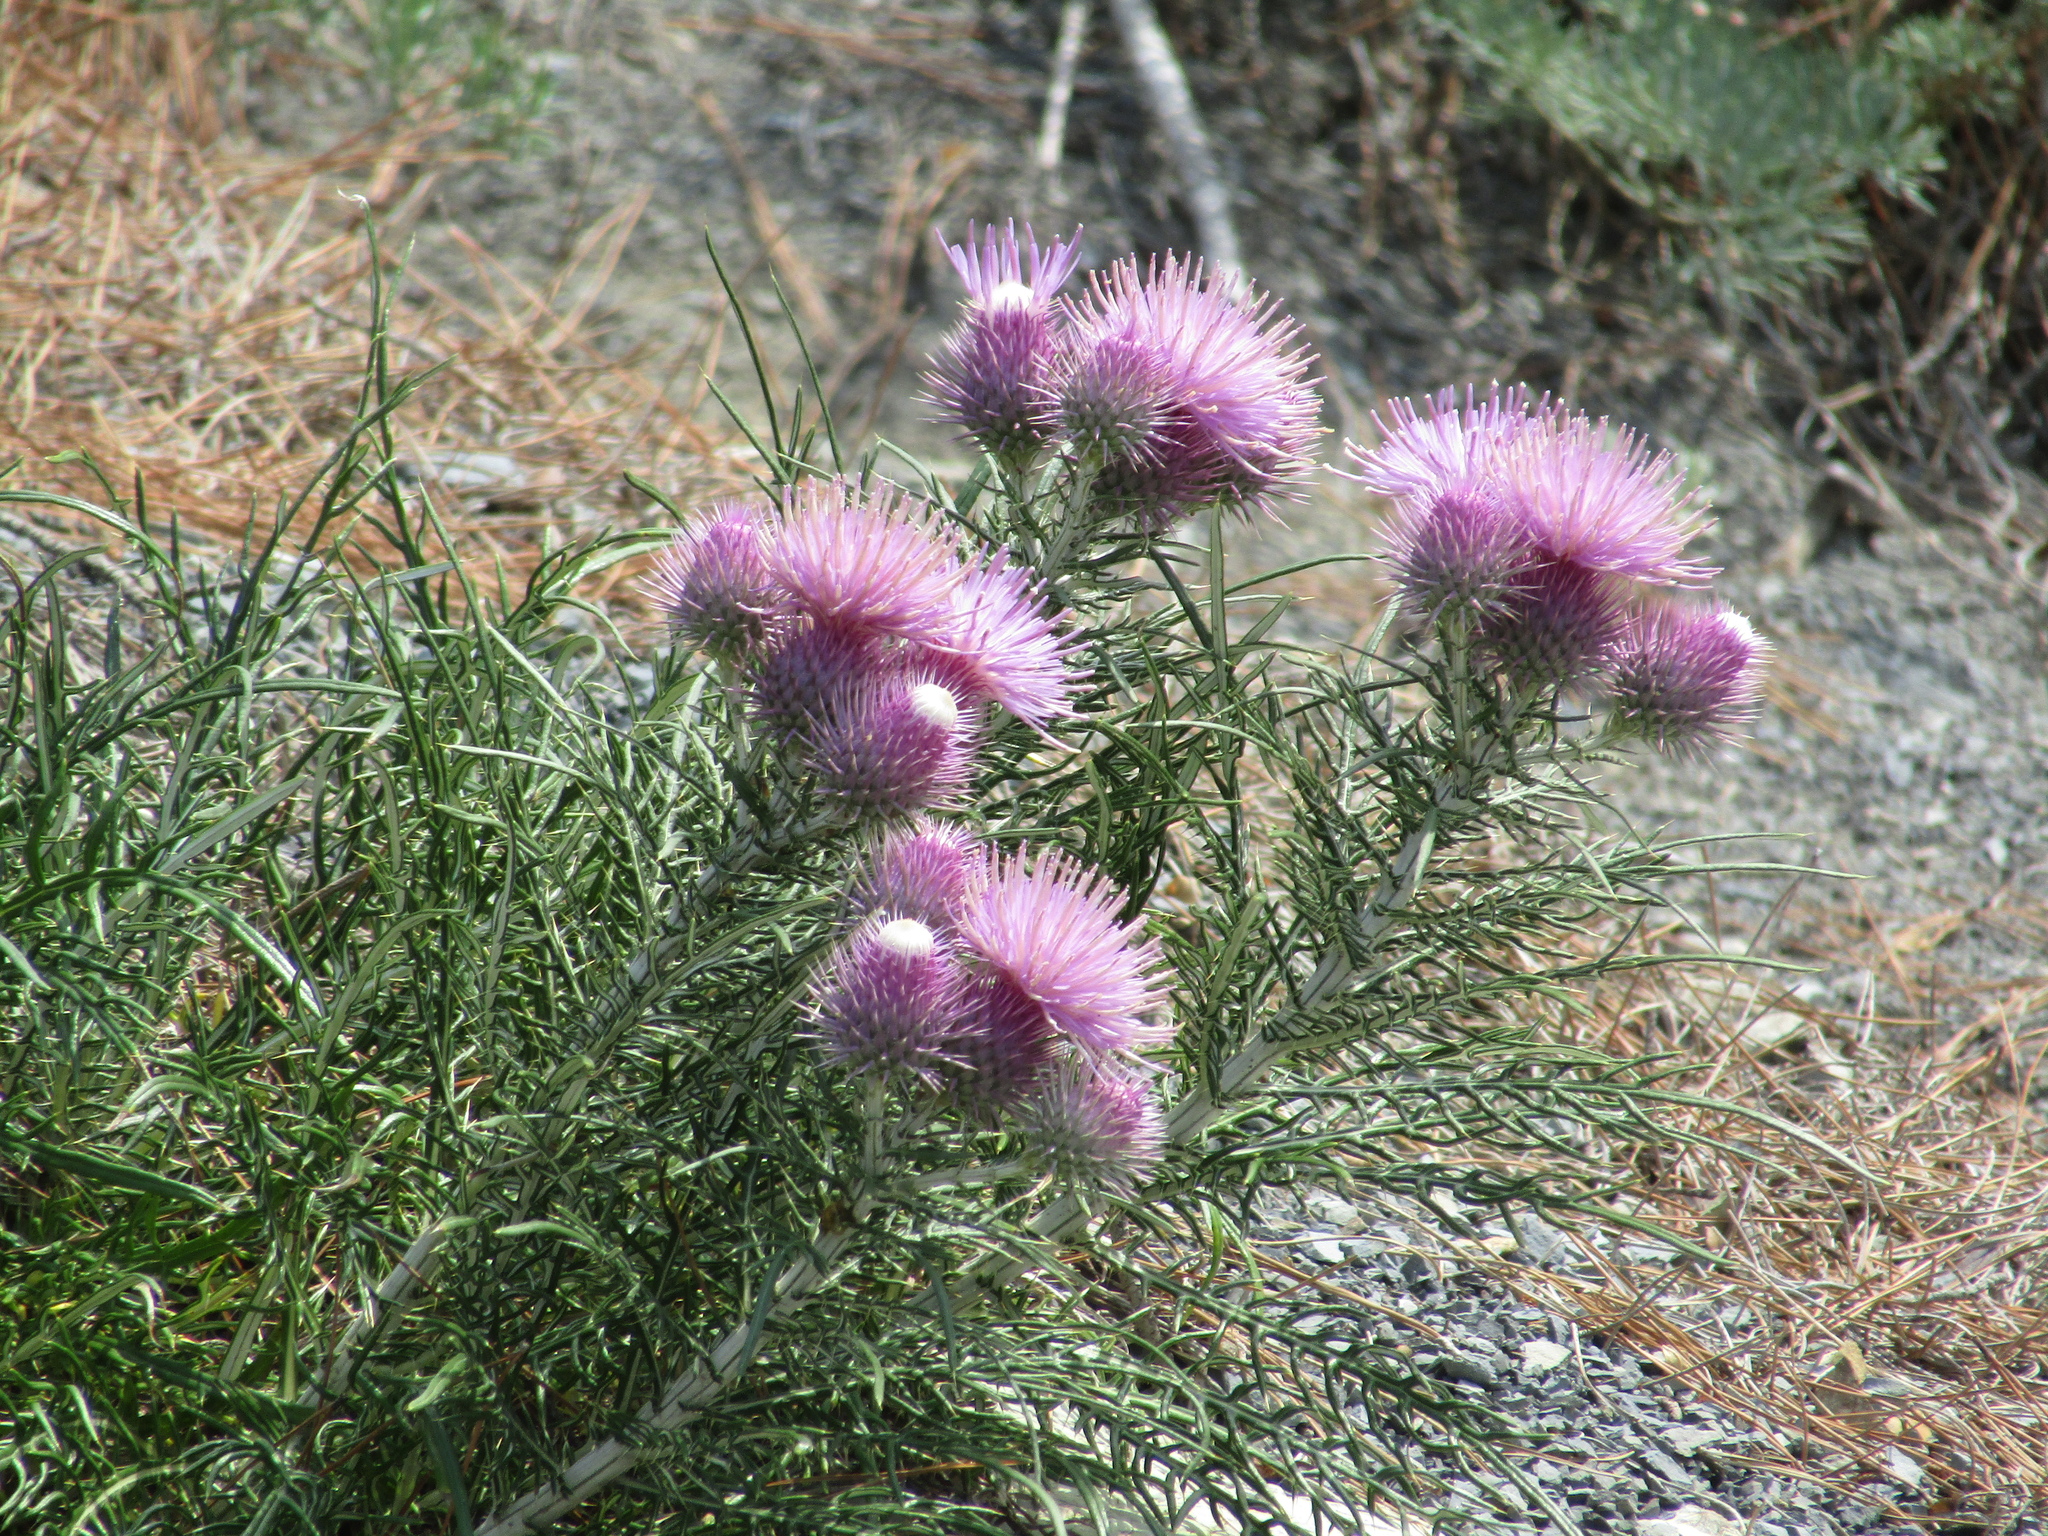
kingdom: Plantae
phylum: Tracheophyta
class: Magnoliopsida
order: Asterales
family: Asteraceae
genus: Ptilostemon
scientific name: Ptilostemon echinocephalus
